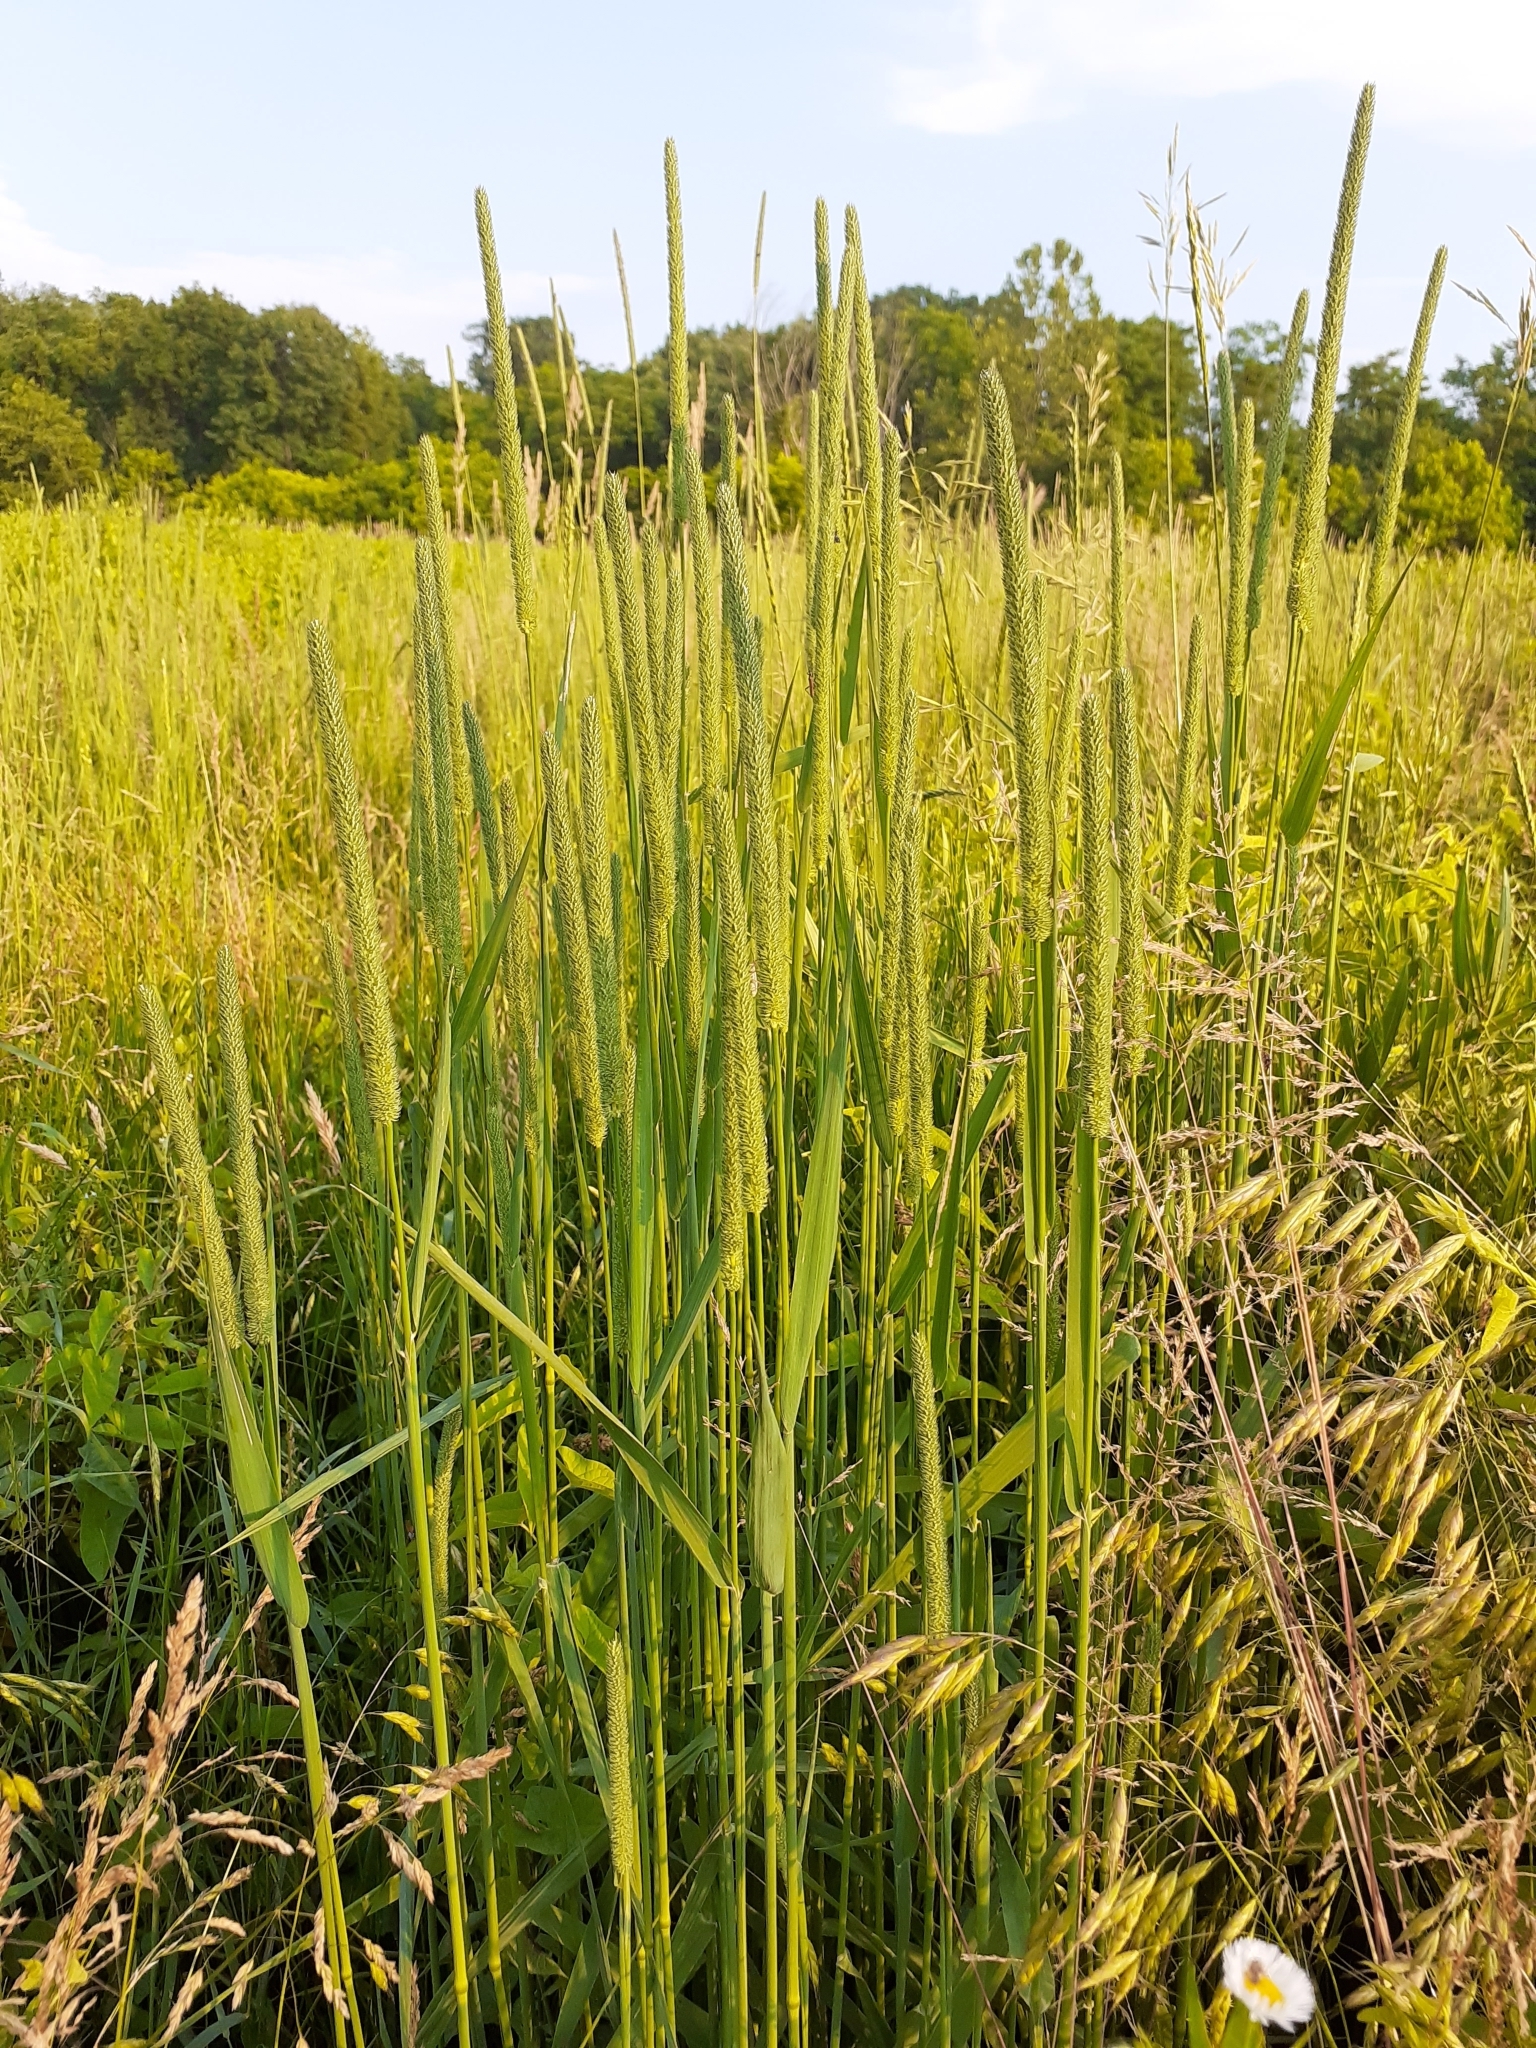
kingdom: Plantae
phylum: Tracheophyta
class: Liliopsida
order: Poales
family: Poaceae
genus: Phleum
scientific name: Phleum pratense
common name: Timothy grass
